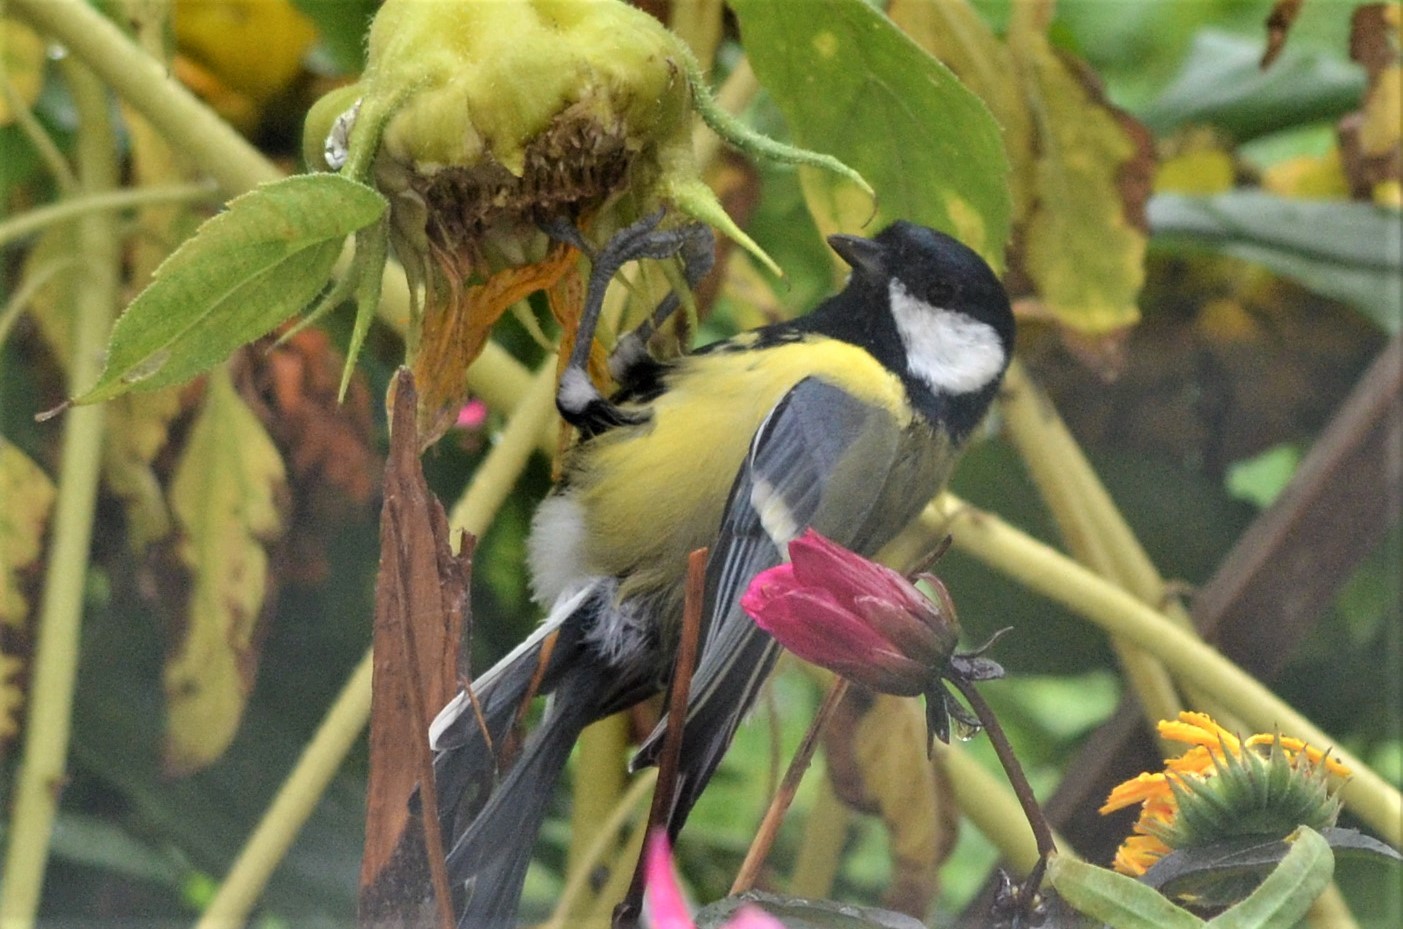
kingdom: Animalia
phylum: Chordata
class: Aves
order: Passeriformes
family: Paridae
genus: Parus
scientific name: Parus major
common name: Great tit
